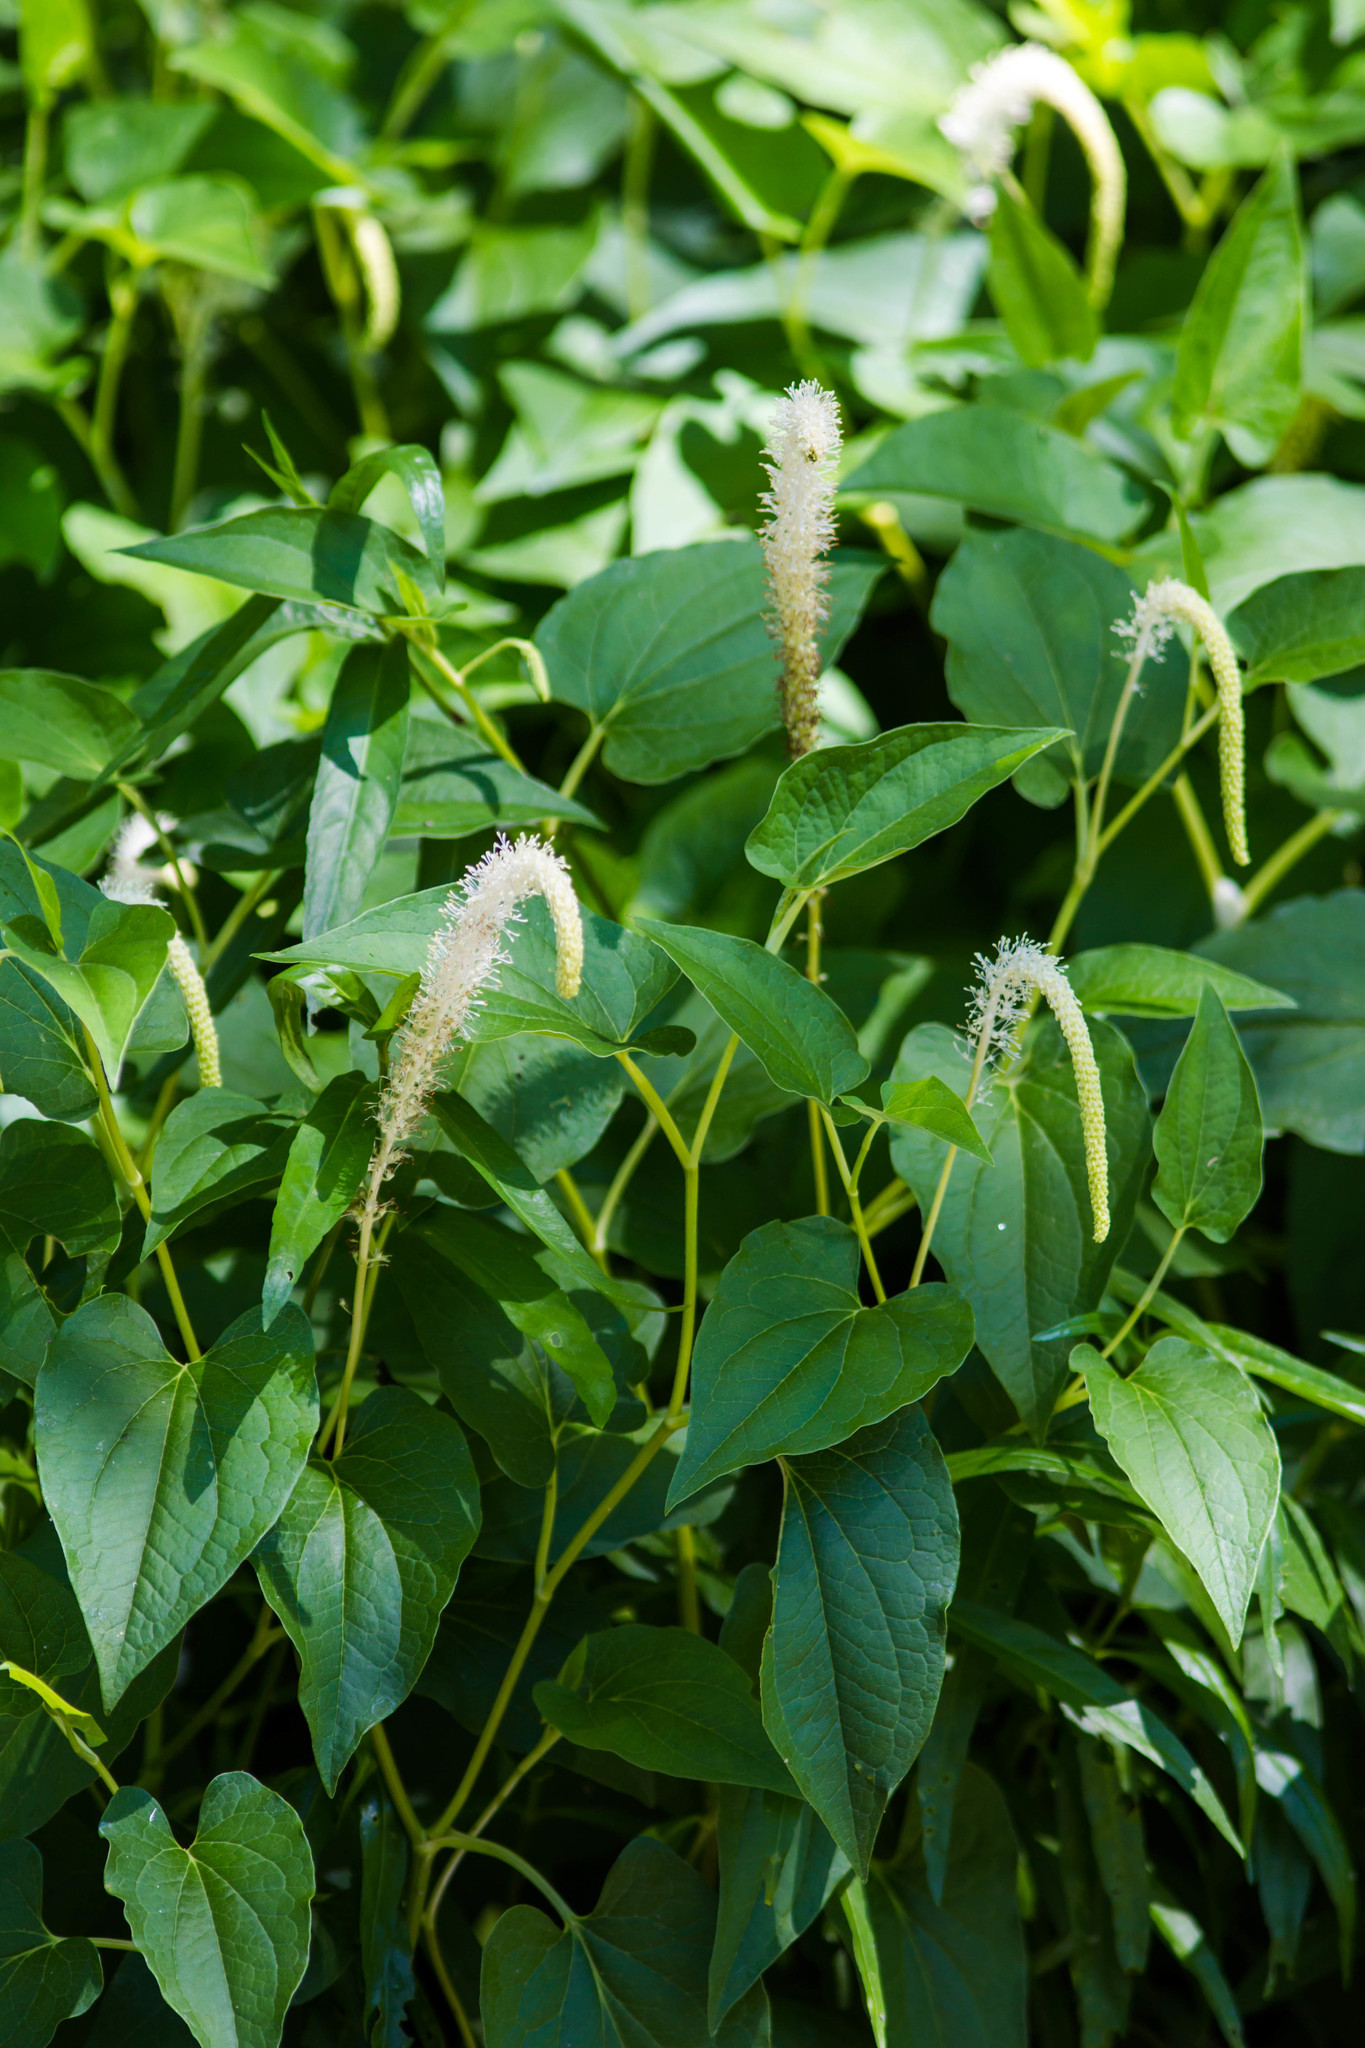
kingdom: Plantae
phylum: Tracheophyta
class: Magnoliopsida
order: Piperales
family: Saururaceae
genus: Saururus
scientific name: Saururus cernuus
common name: Lizard's-tail
